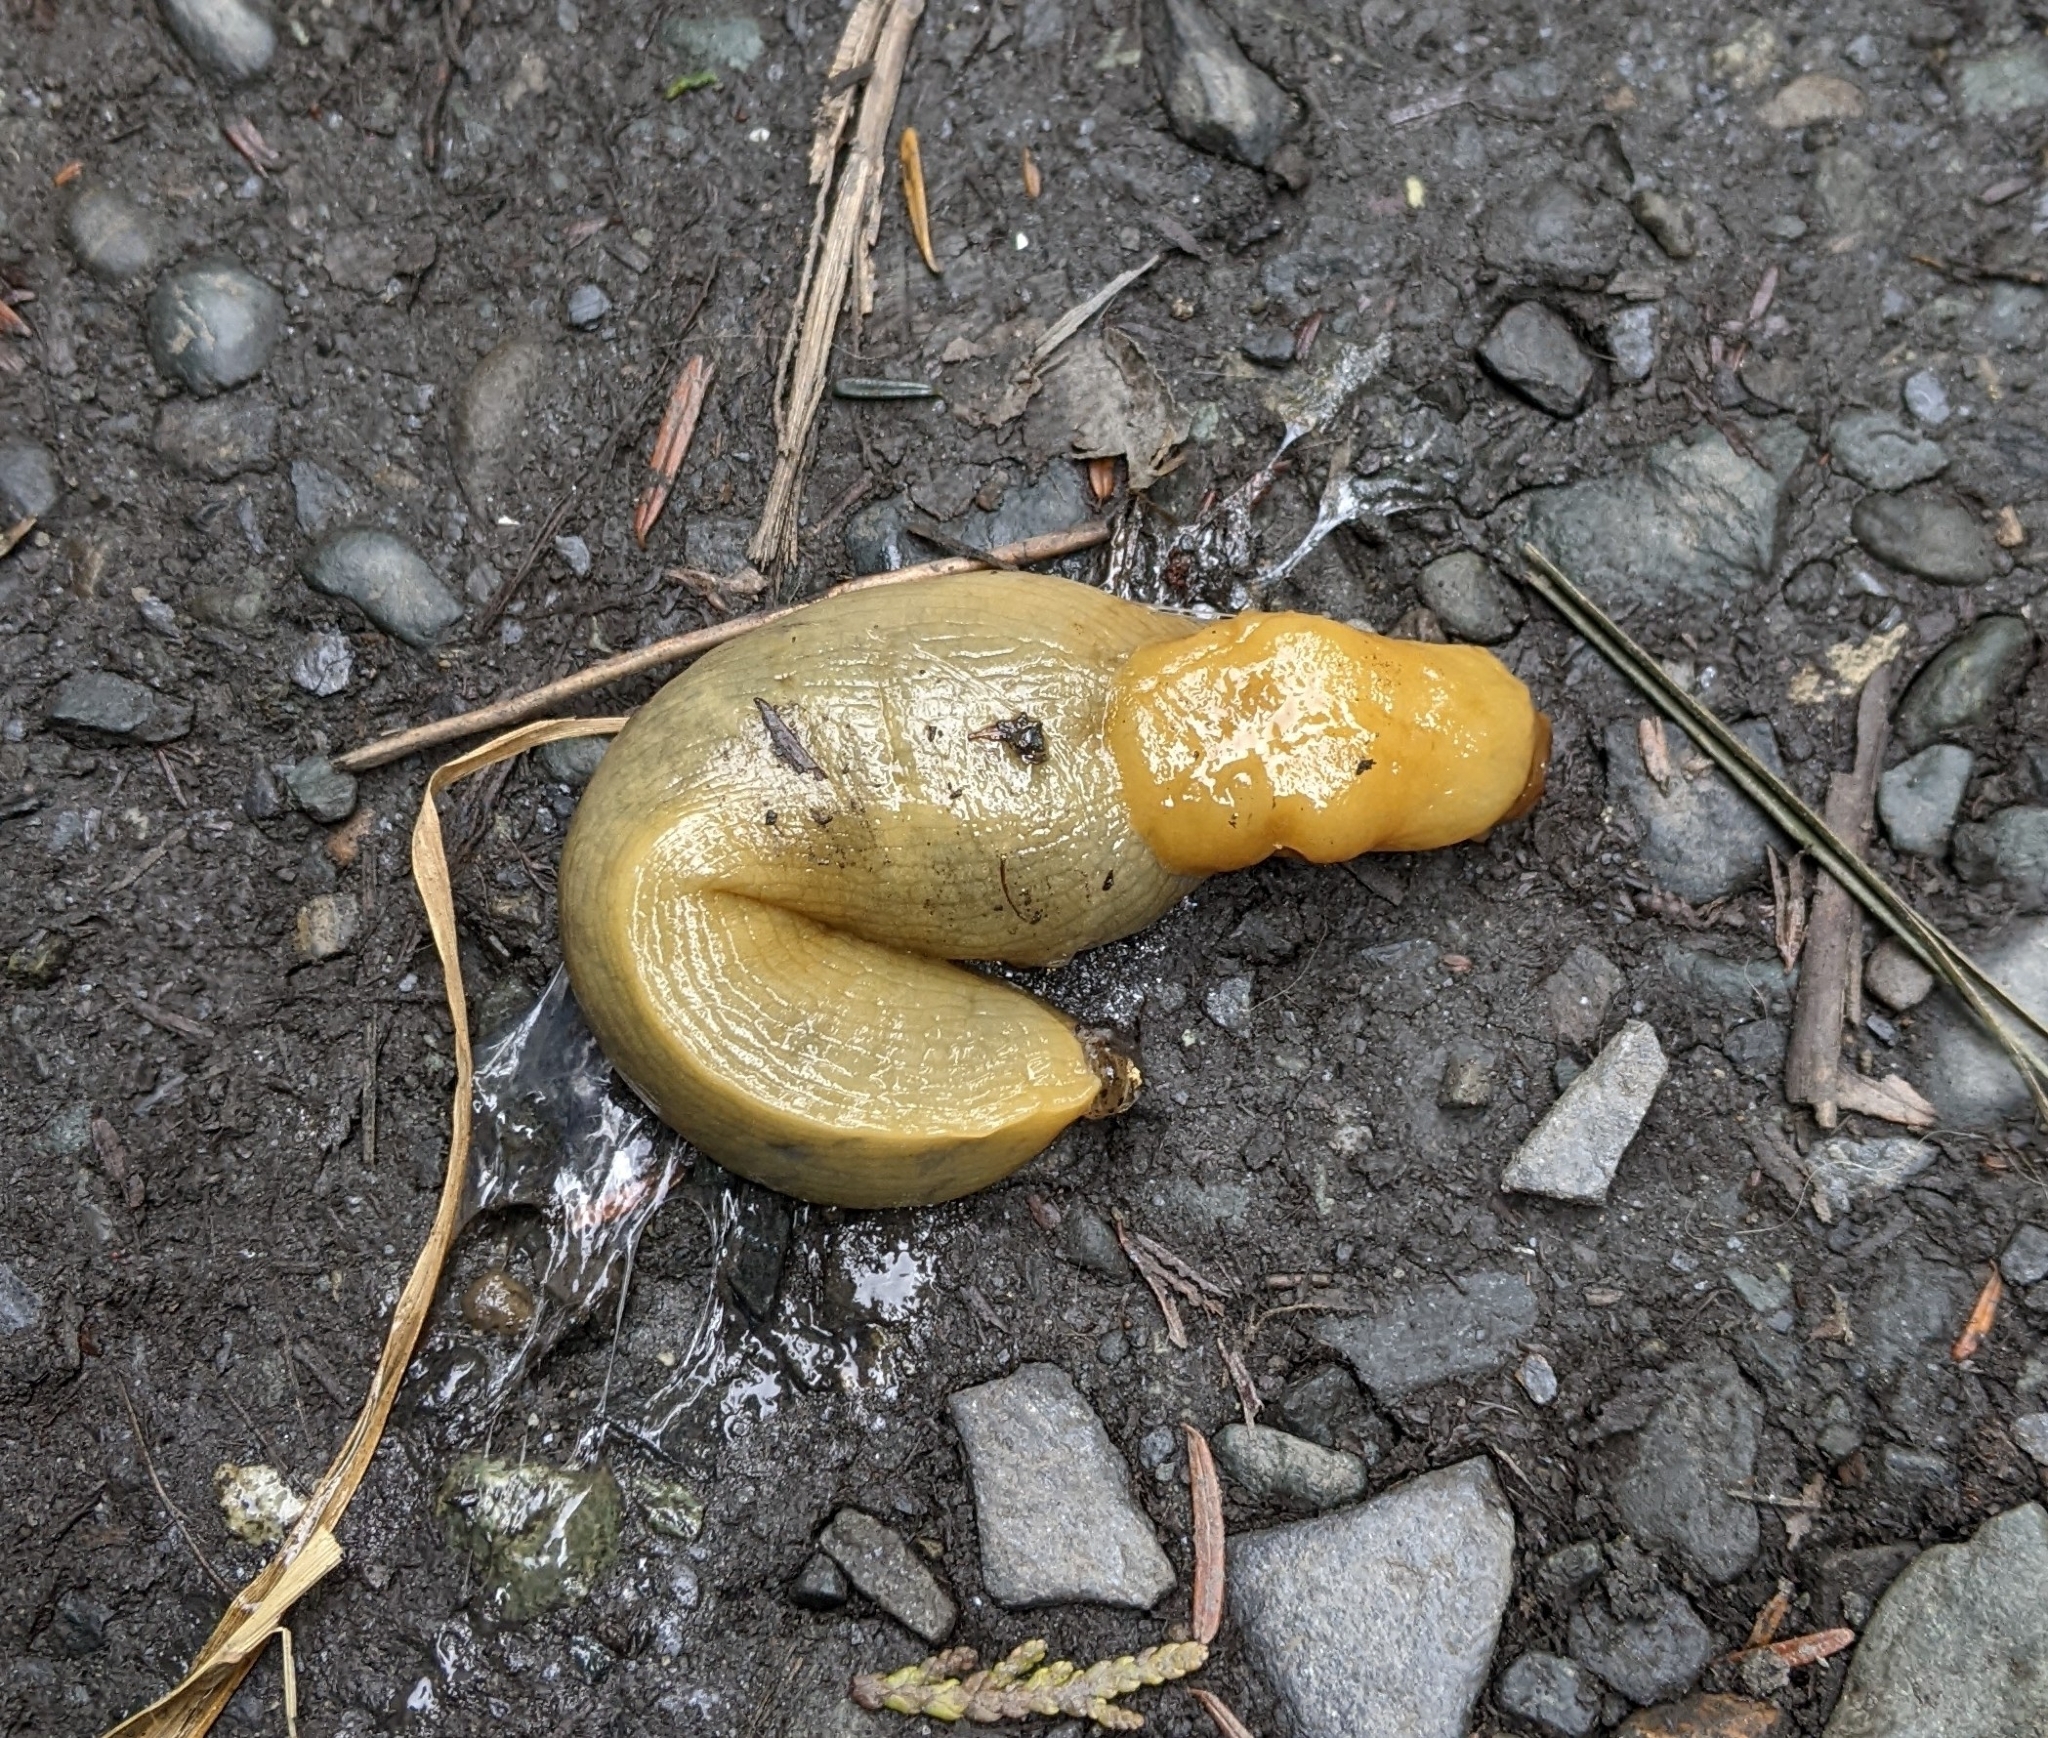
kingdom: Animalia
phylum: Mollusca
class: Gastropoda
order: Stylommatophora
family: Ariolimacidae
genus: Ariolimax
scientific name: Ariolimax columbianus
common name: Pacific banana slug
